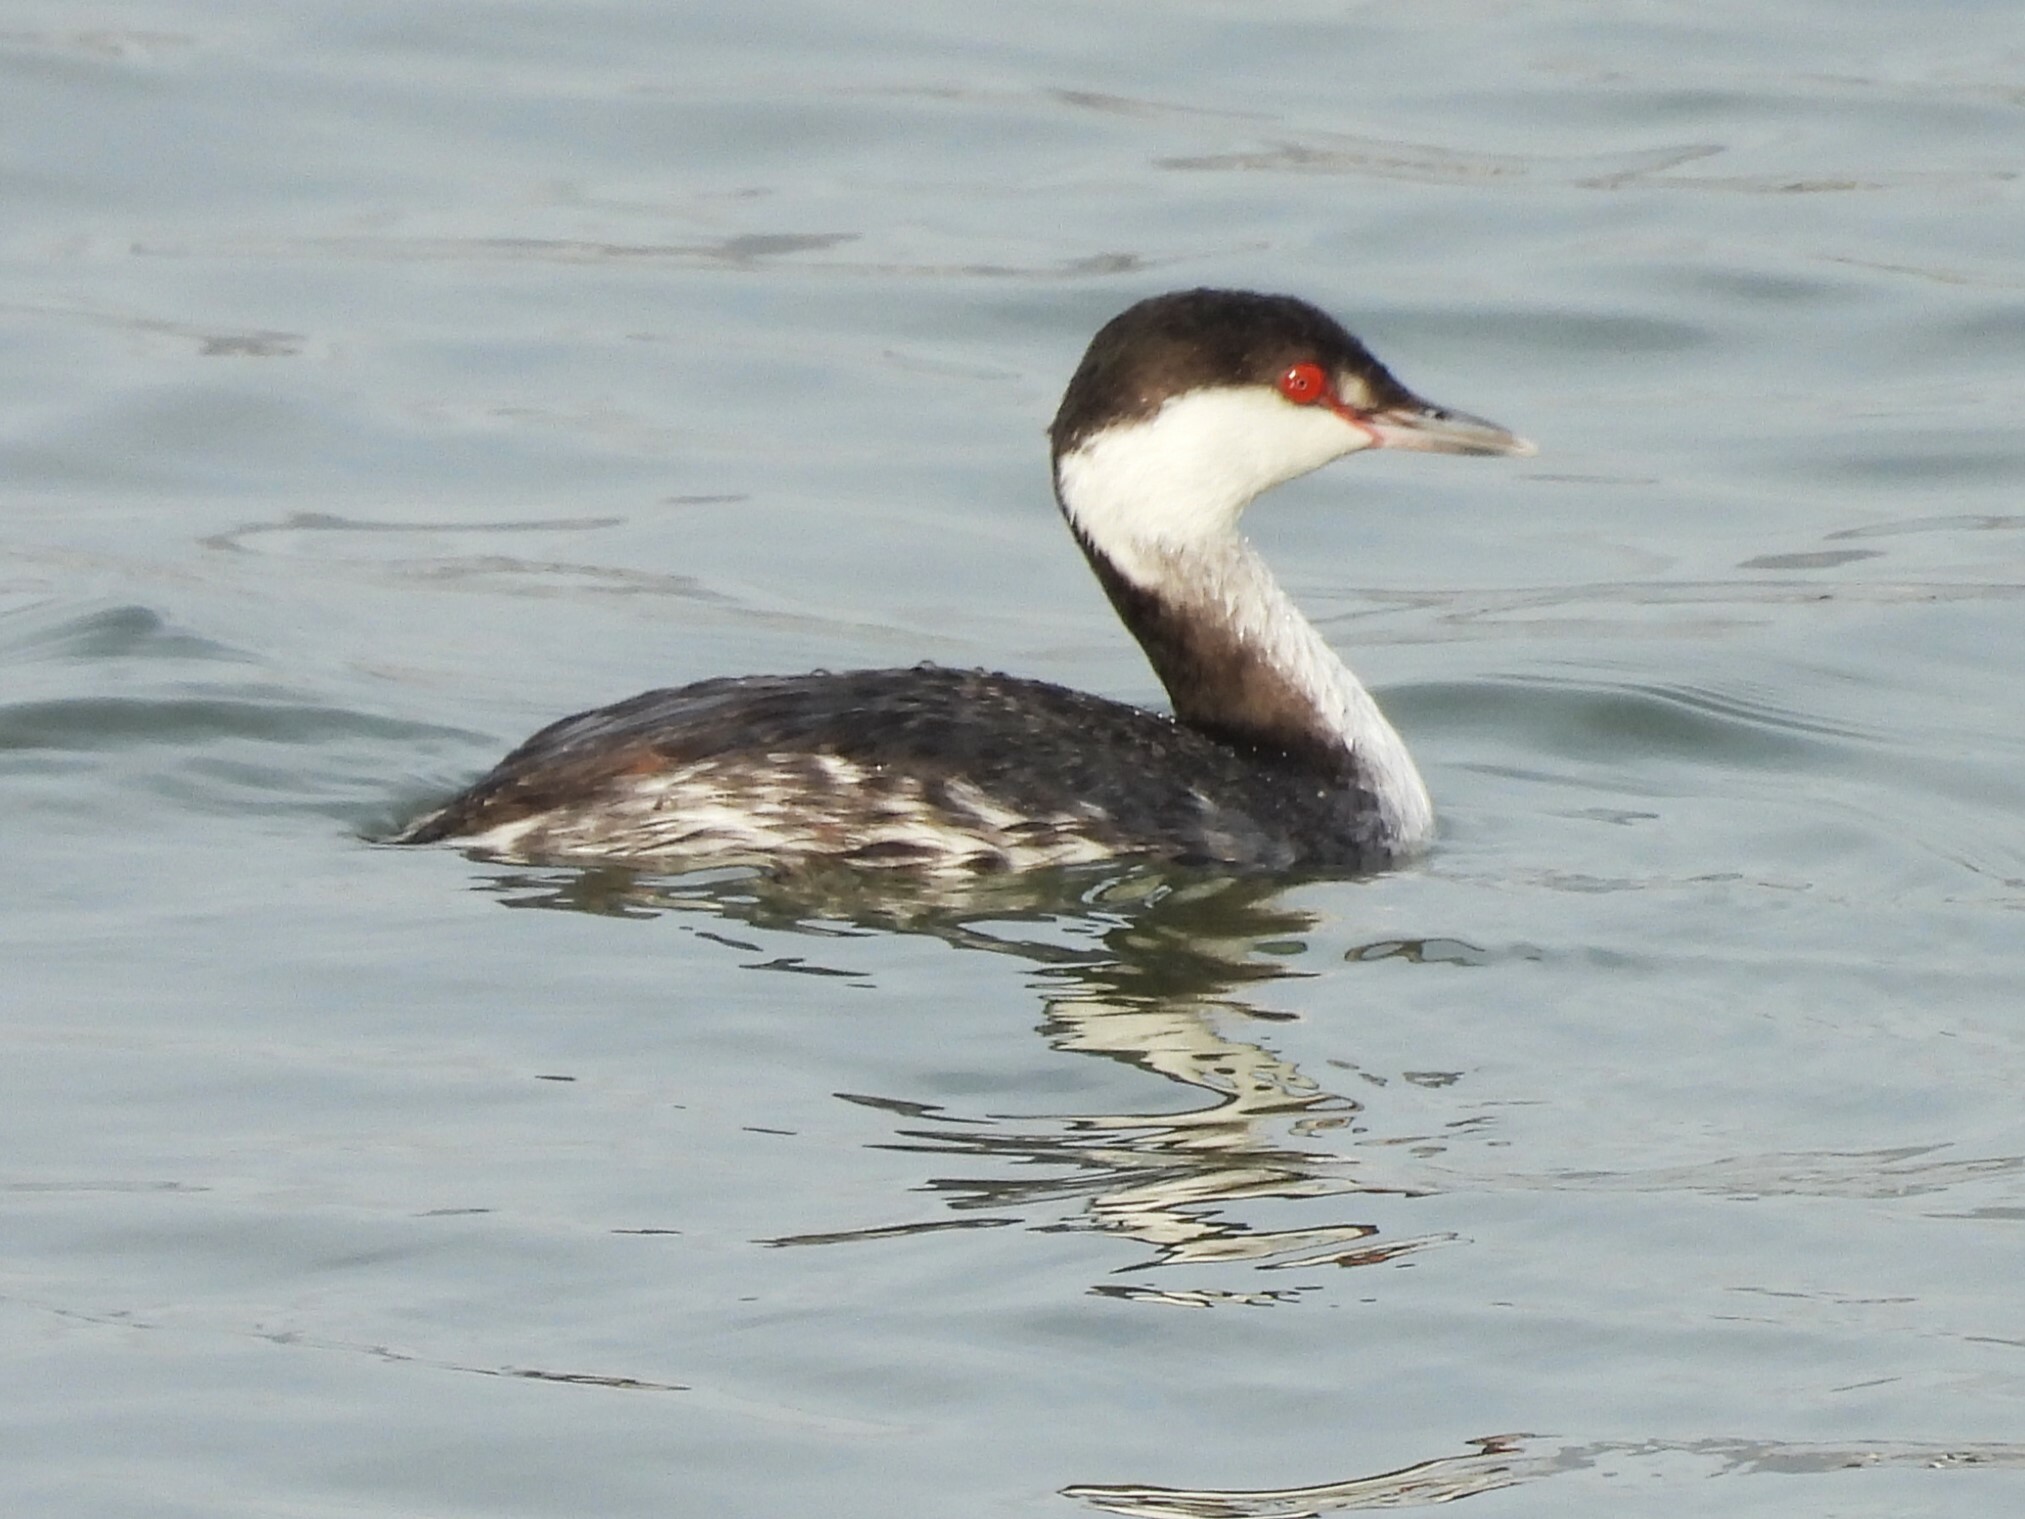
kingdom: Animalia
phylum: Chordata
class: Aves
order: Podicipediformes
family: Podicipedidae
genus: Podiceps
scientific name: Podiceps auritus
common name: Horned grebe
